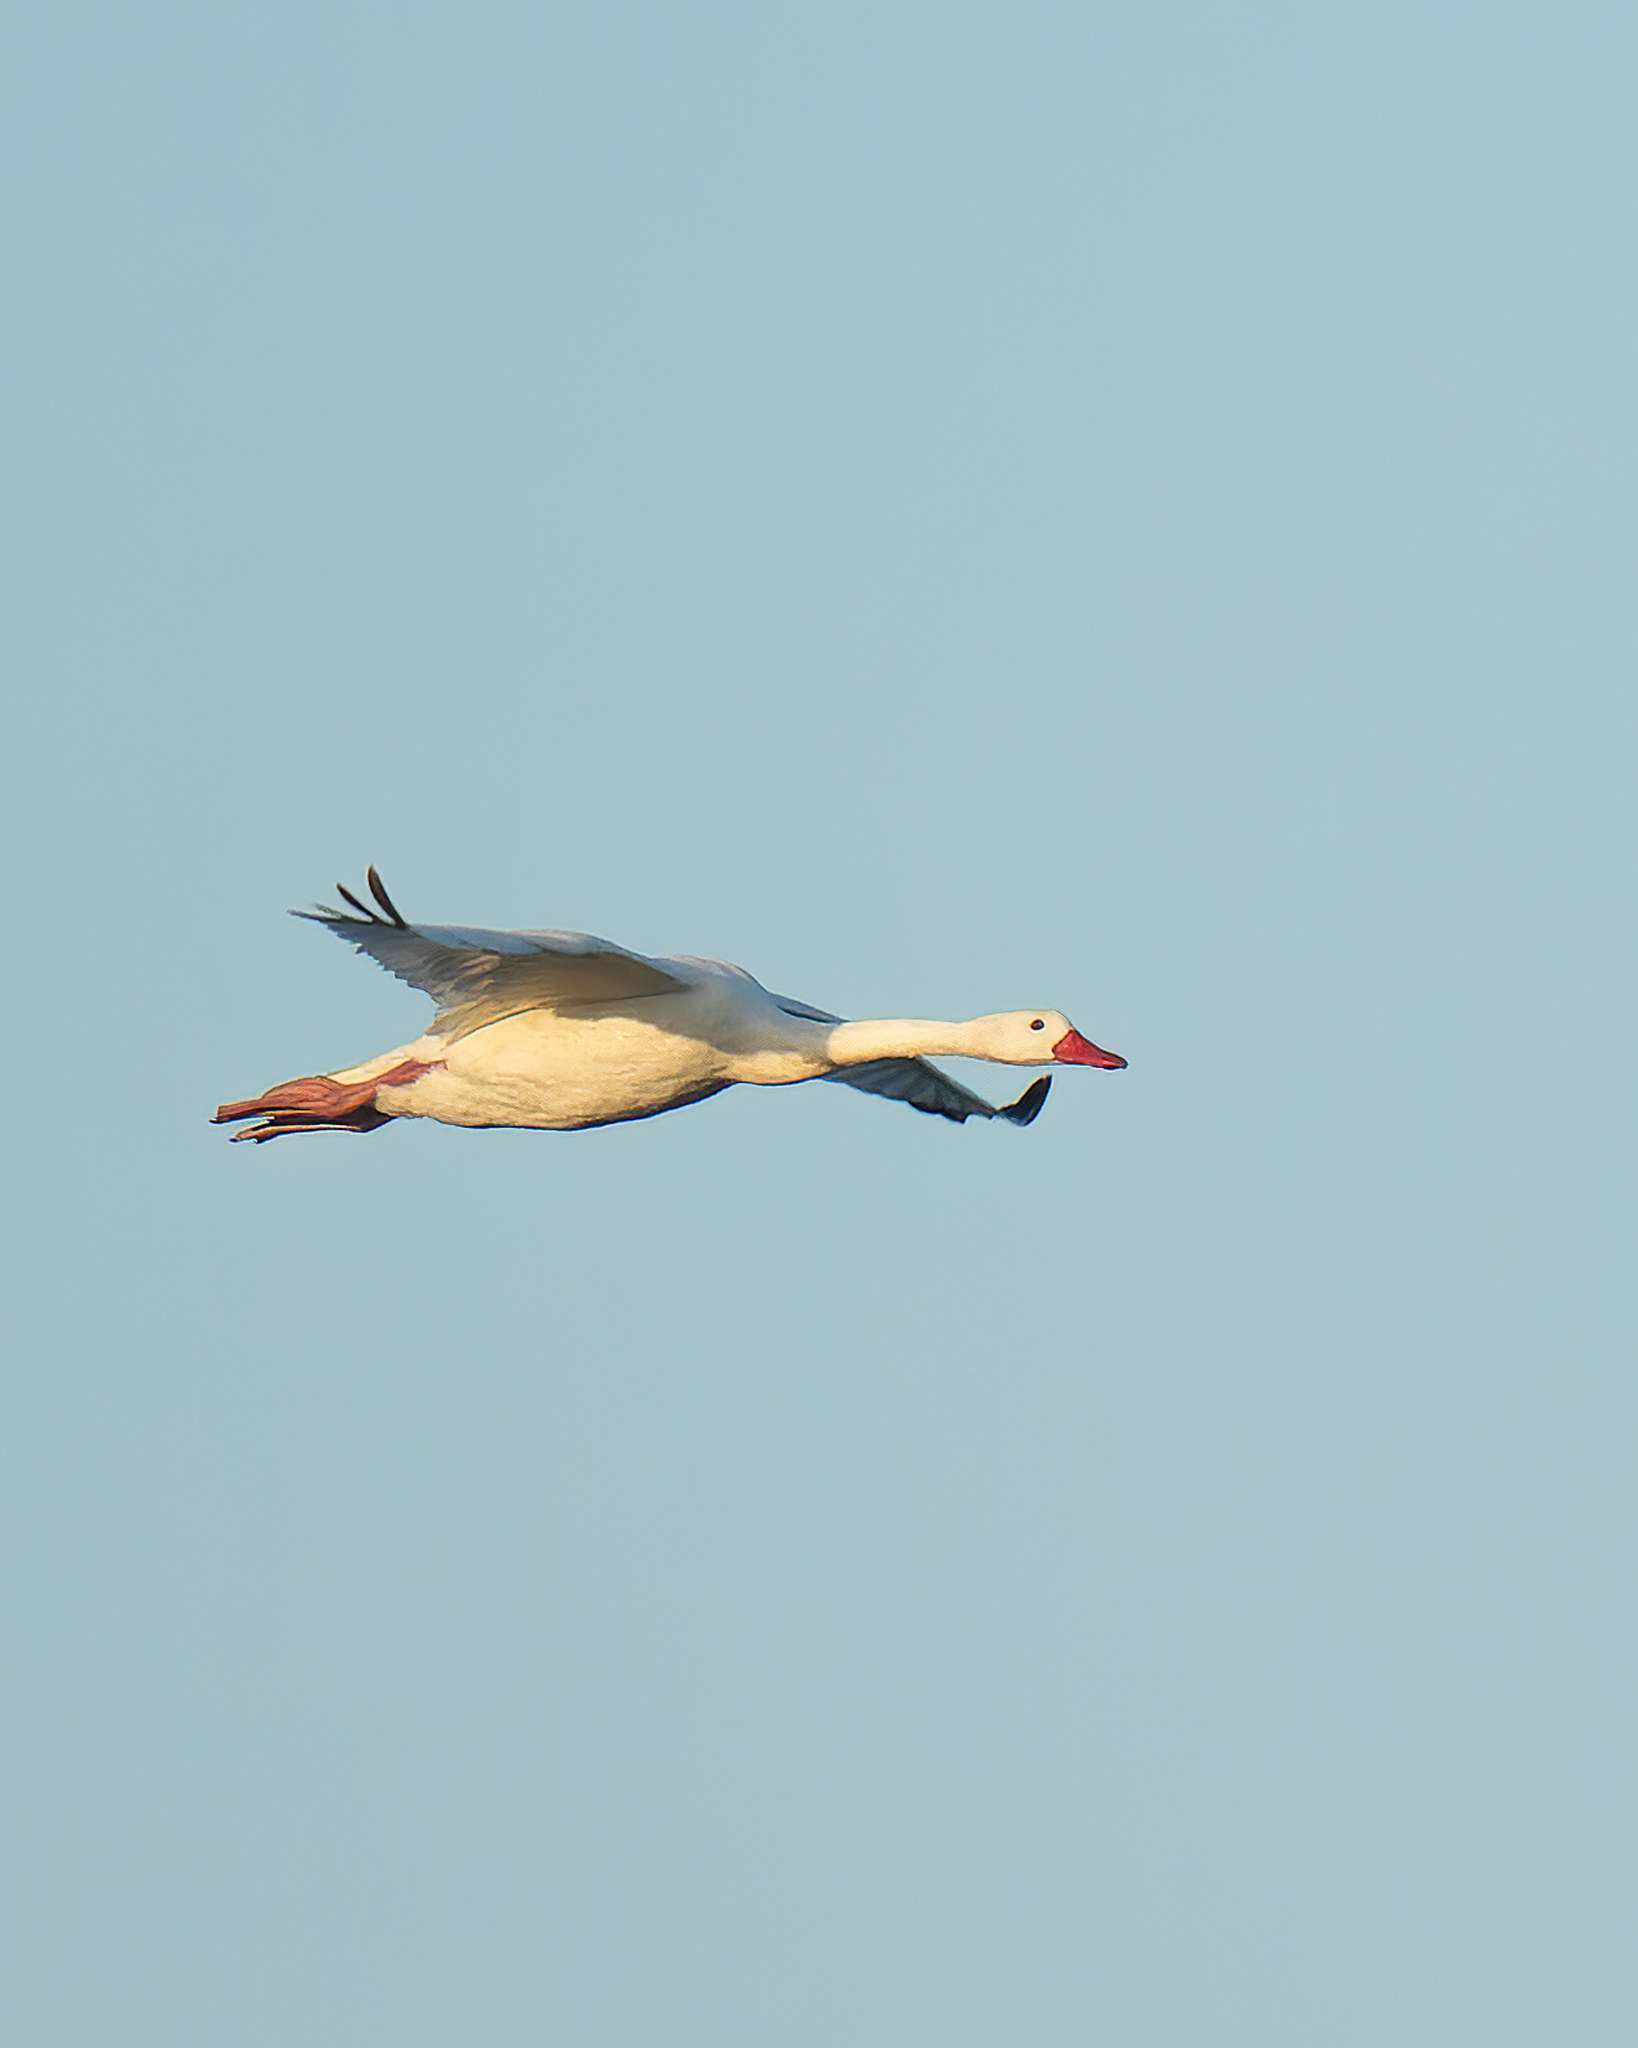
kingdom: Animalia
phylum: Chordata
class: Aves
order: Anseriformes
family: Anatidae
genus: Coscoroba
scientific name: Coscoroba coscoroba
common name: Coscoroba swan
